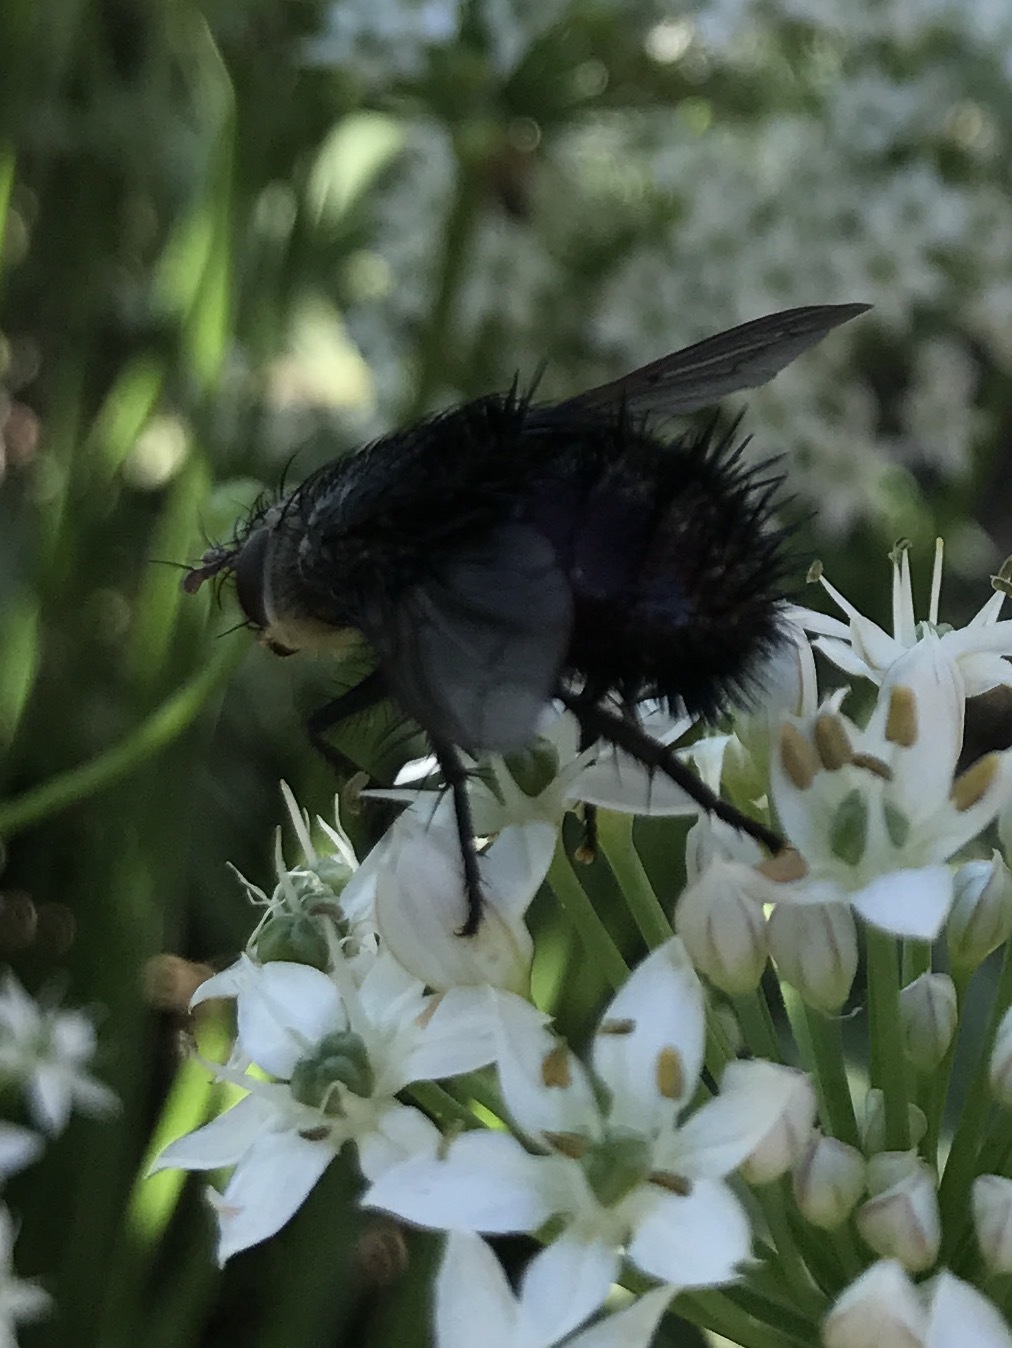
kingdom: Animalia
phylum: Arthropoda
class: Insecta
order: Diptera
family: Tachinidae
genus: Juriniopsis
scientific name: Juriniopsis adusta
